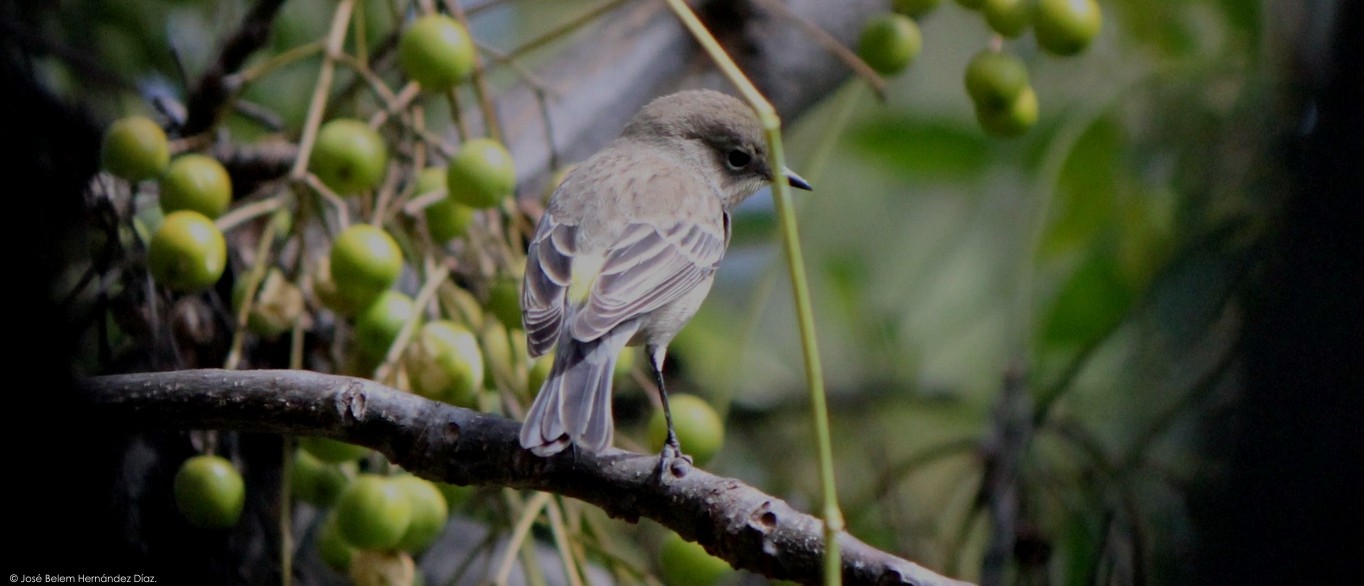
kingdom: Animalia
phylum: Chordata
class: Aves
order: Passeriformes
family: Parulidae
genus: Setophaga
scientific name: Setophaga auduboni
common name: Audubon's warbler
